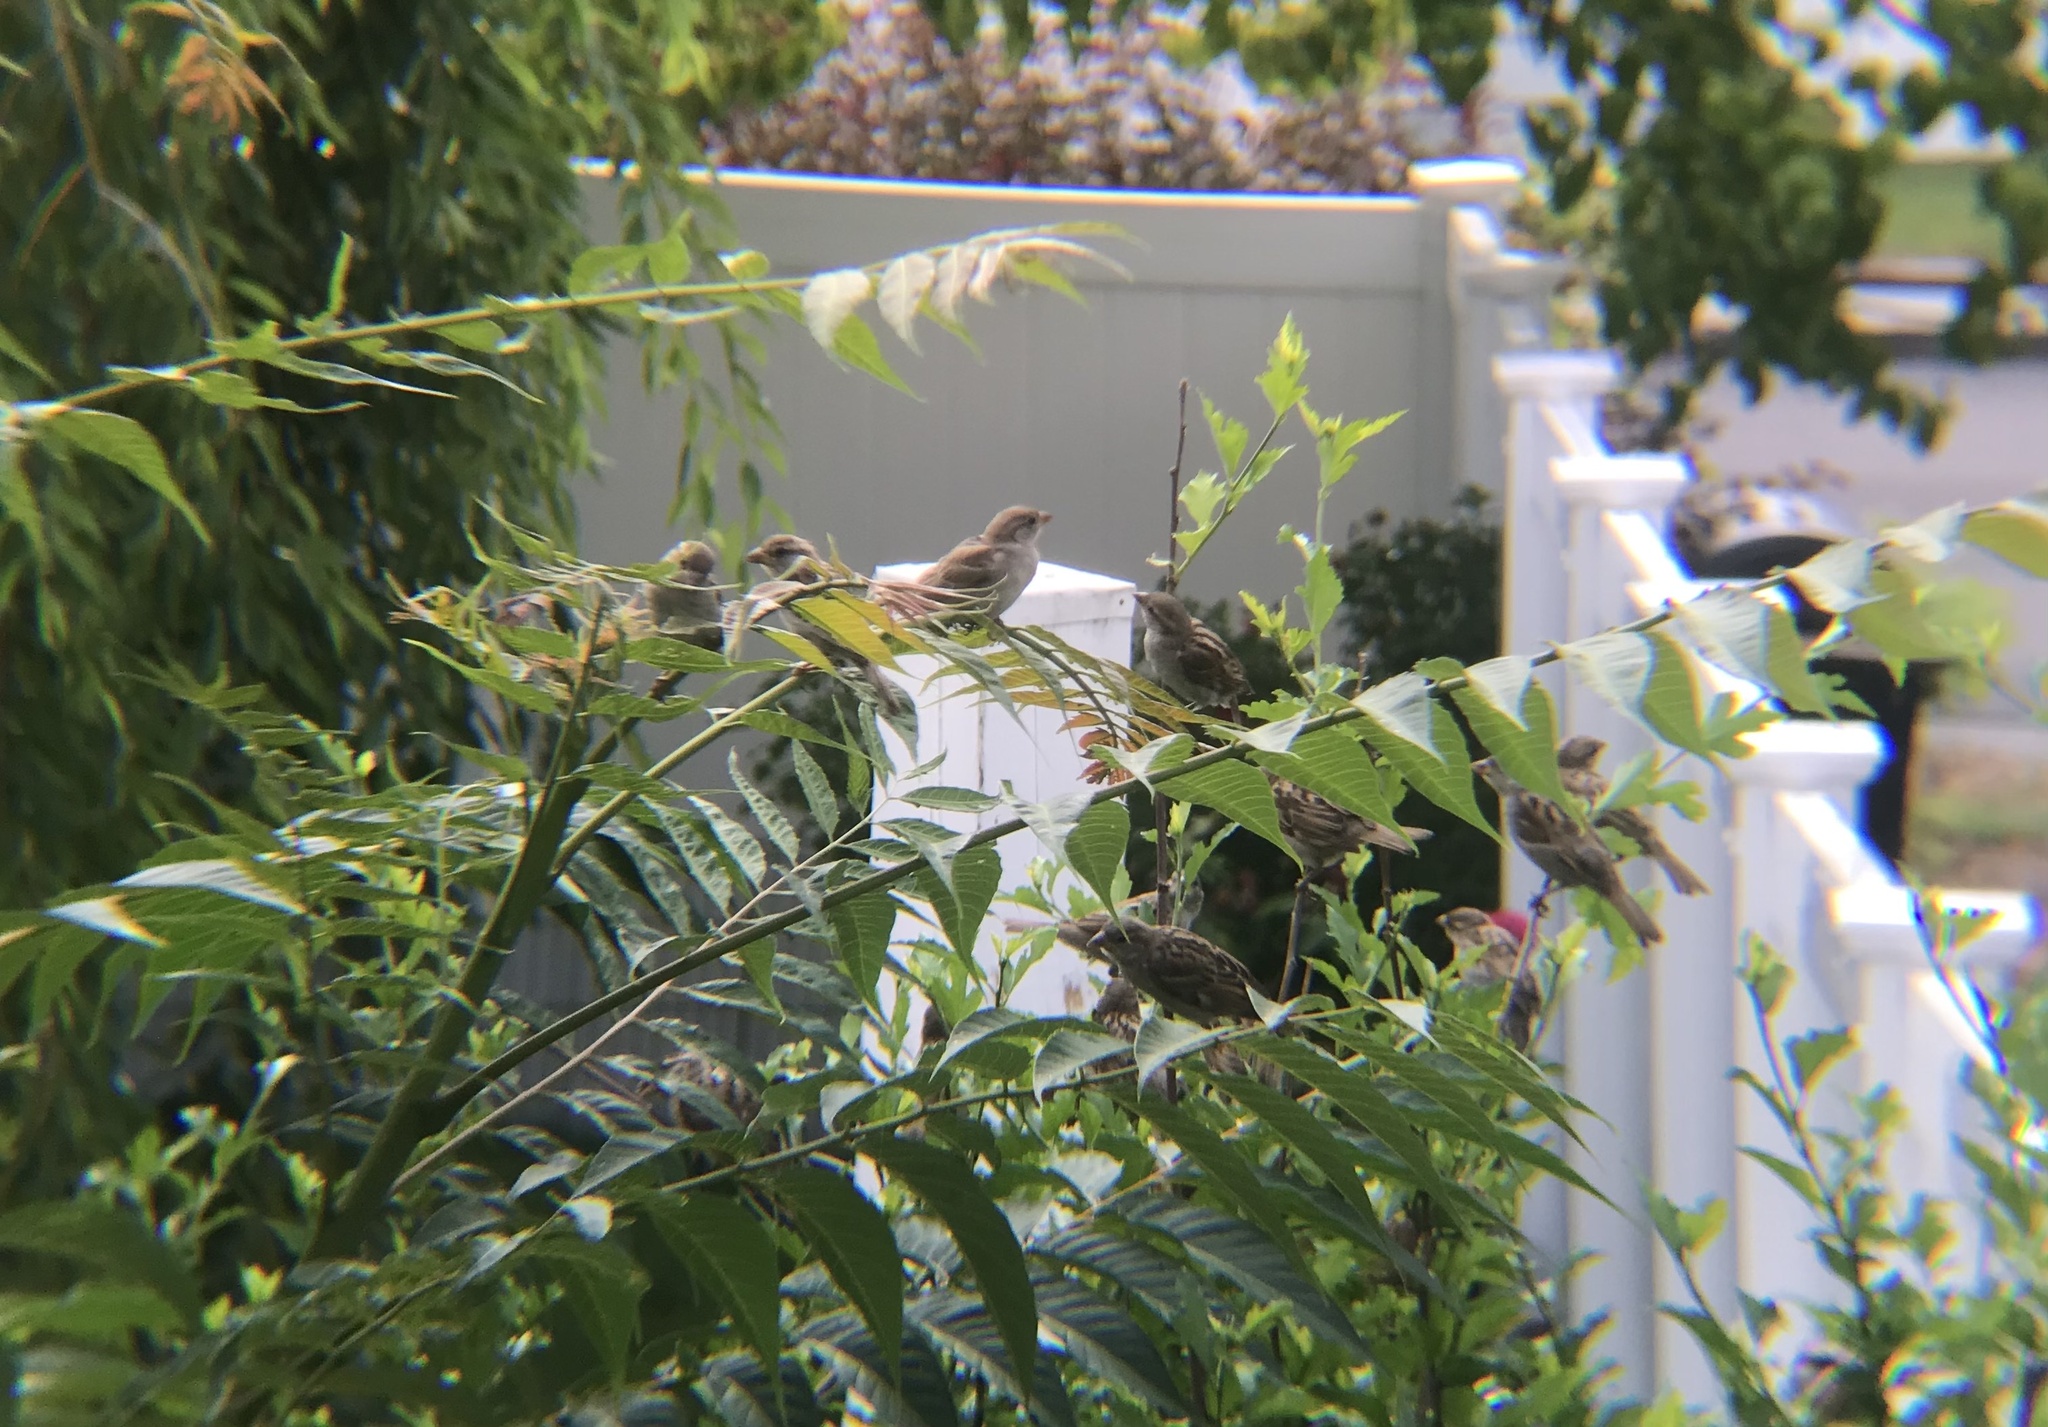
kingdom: Animalia
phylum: Chordata
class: Aves
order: Passeriformes
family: Passeridae
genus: Passer
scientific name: Passer domesticus
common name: House sparrow
